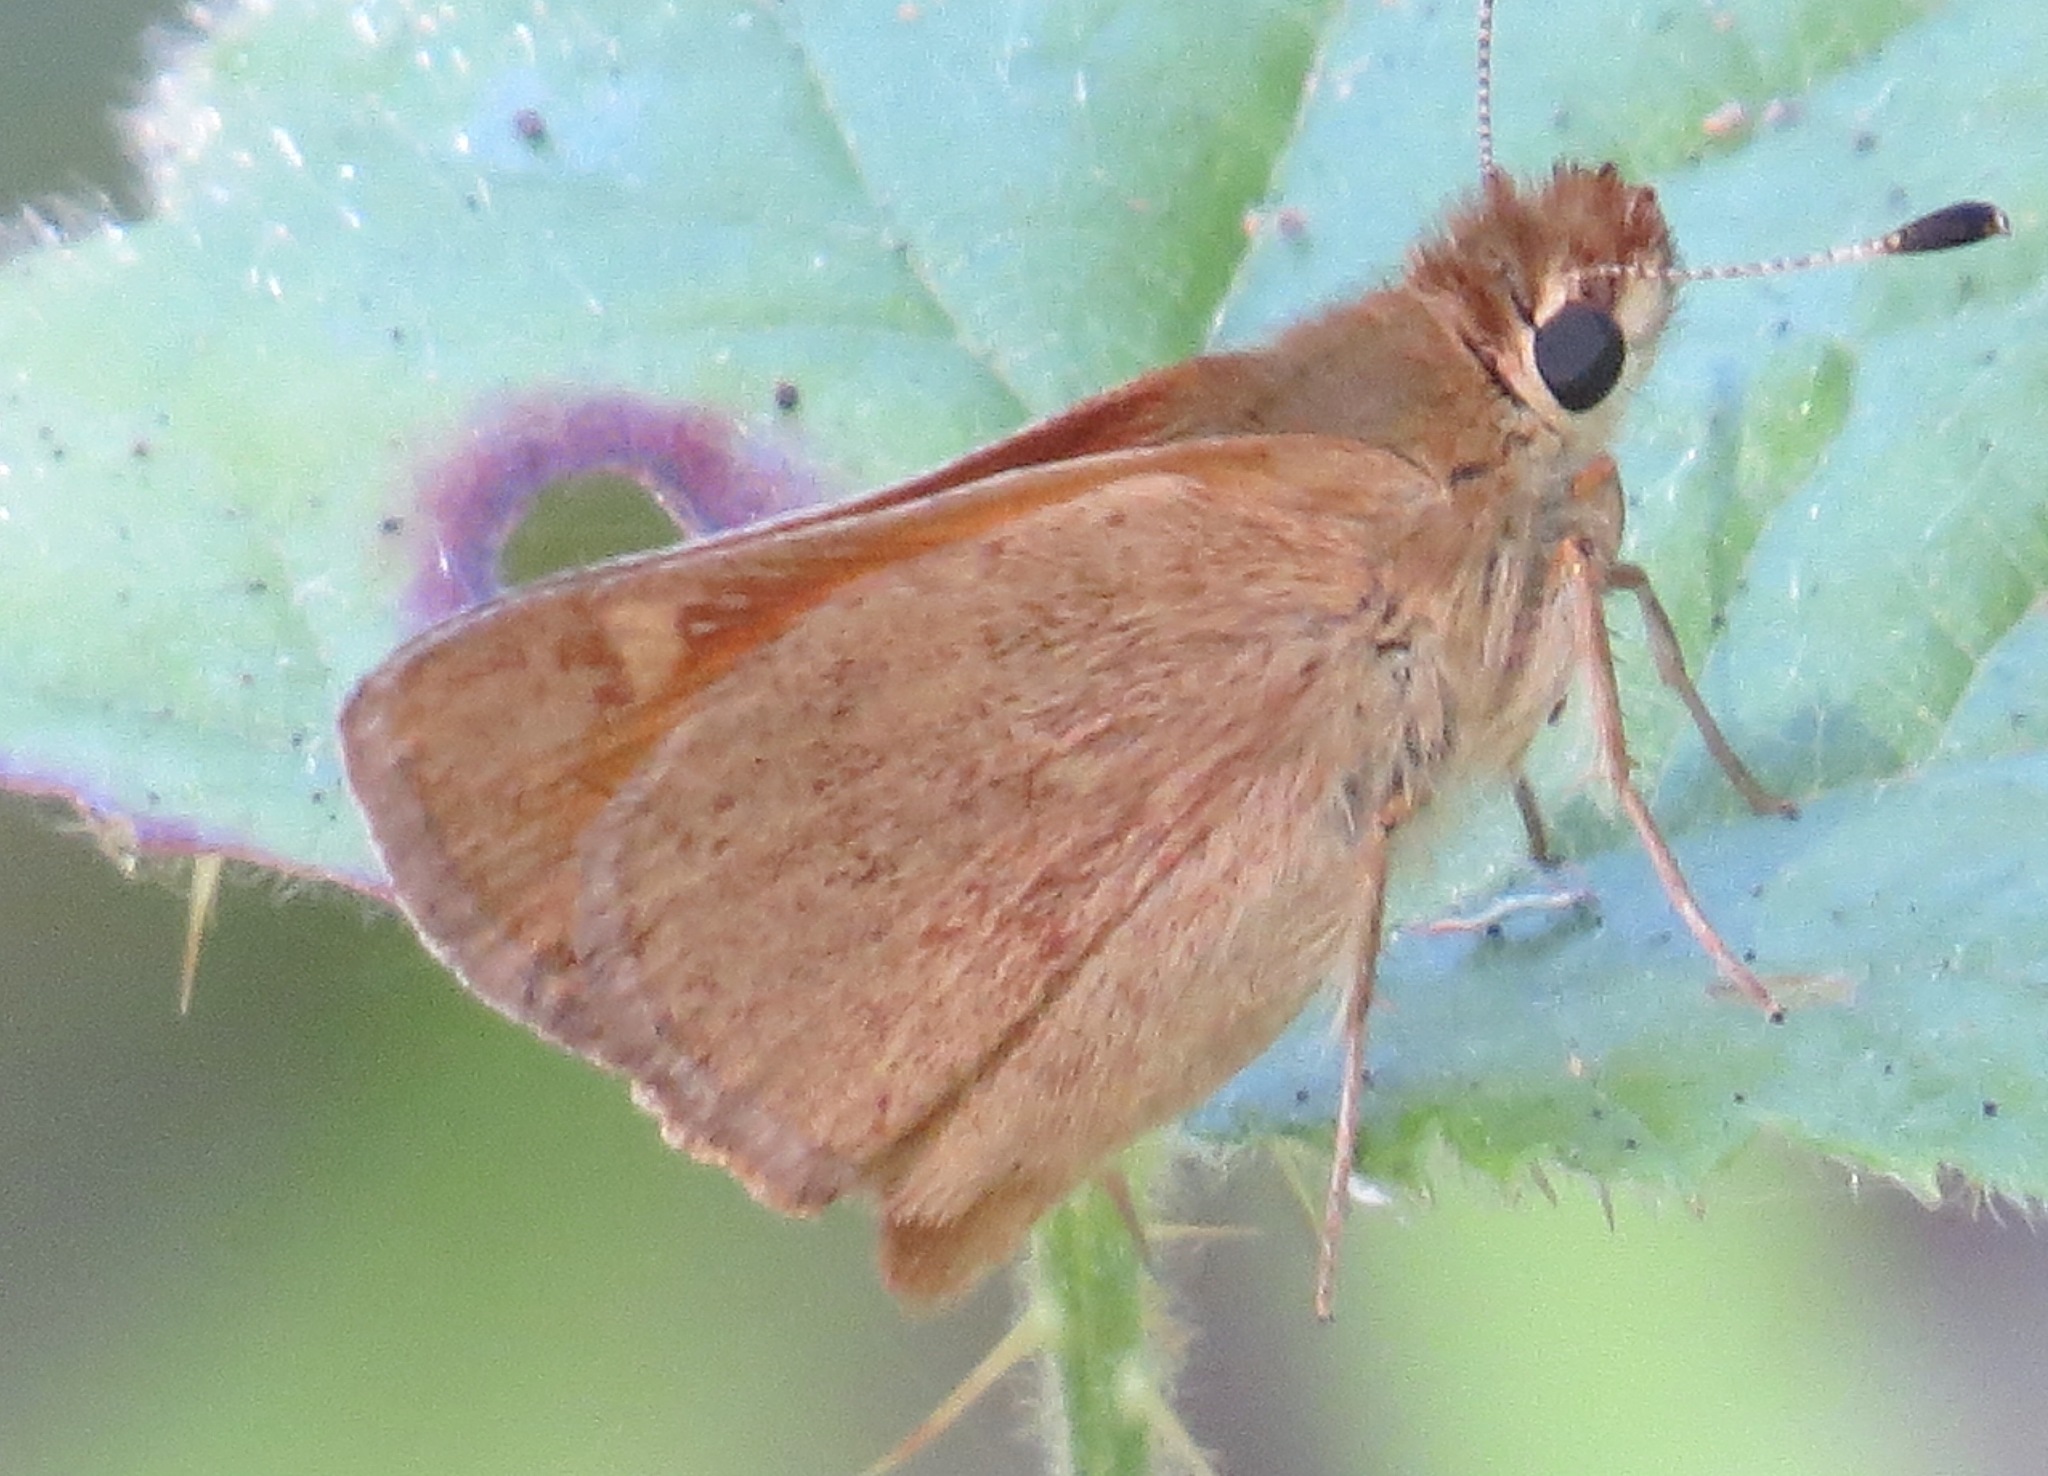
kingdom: Animalia
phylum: Arthropoda
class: Insecta
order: Lepidoptera
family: Hesperiidae
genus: Ochlodes
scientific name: Ochlodes sylvanoides
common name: Woodland skipper
